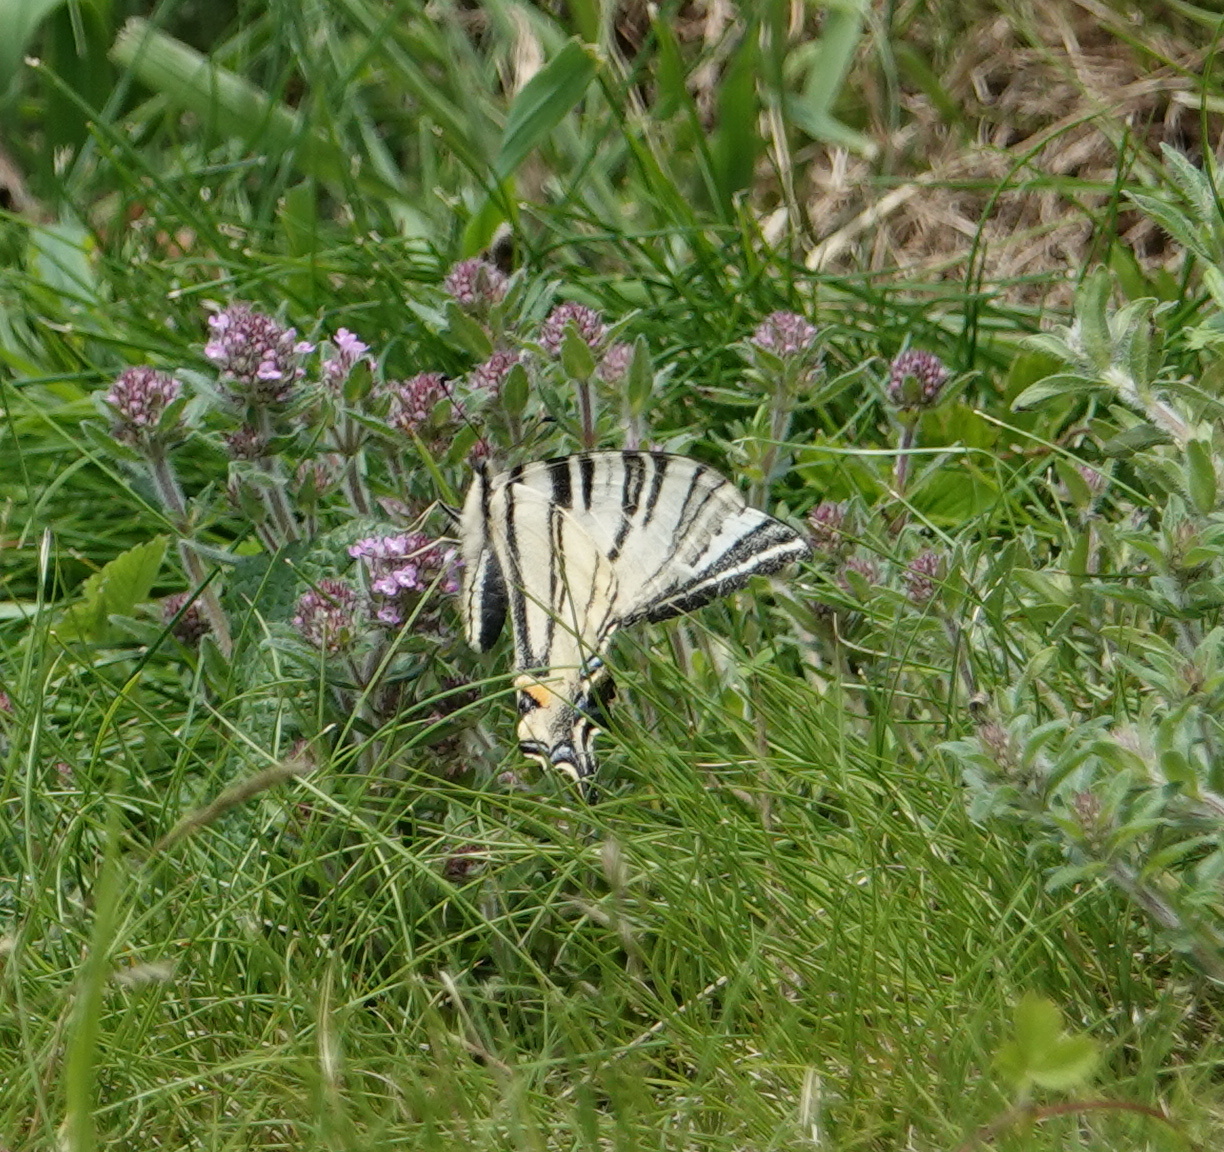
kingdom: Animalia
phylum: Arthropoda
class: Insecta
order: Lepidoptera
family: Papilionidae
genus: Iphiclides
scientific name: Iphiclides podalirius
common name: Scarce swallowtail
